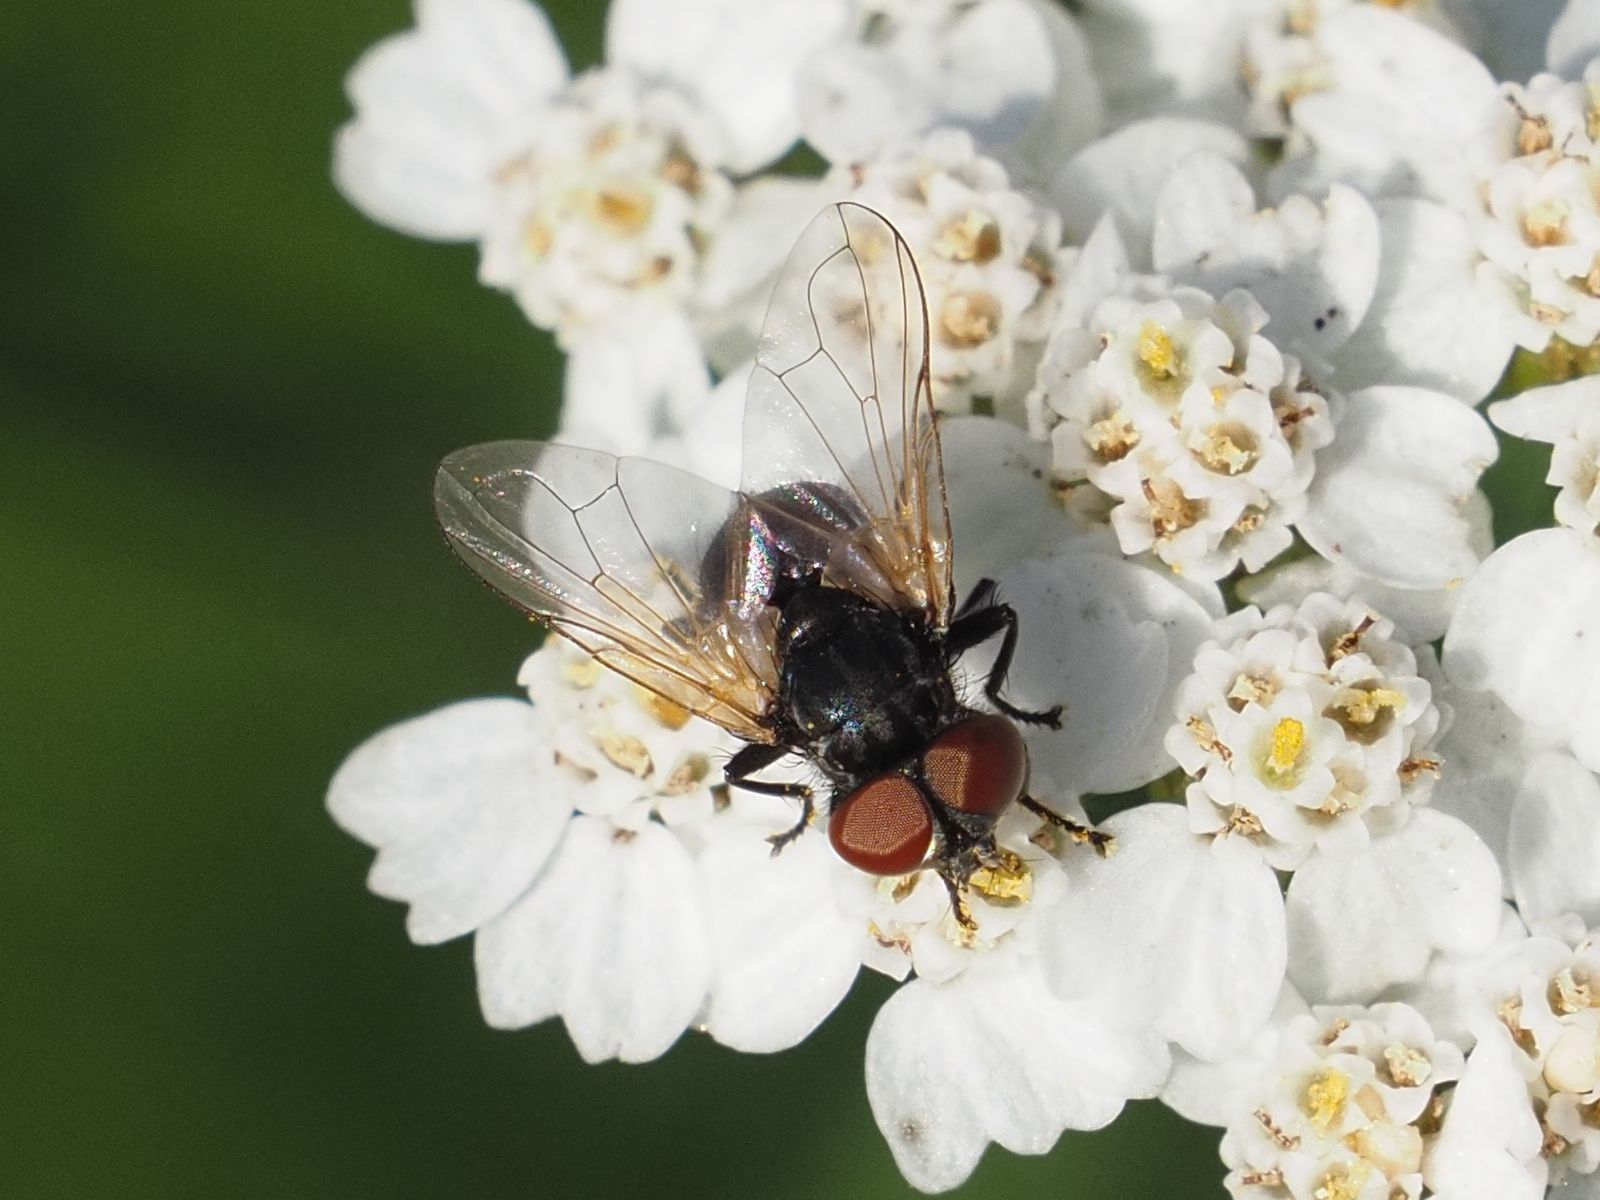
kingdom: Animalia
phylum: Arthropoda
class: Insecta
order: Diptera
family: Tachinidae
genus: Phasia
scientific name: Phasia obesa
